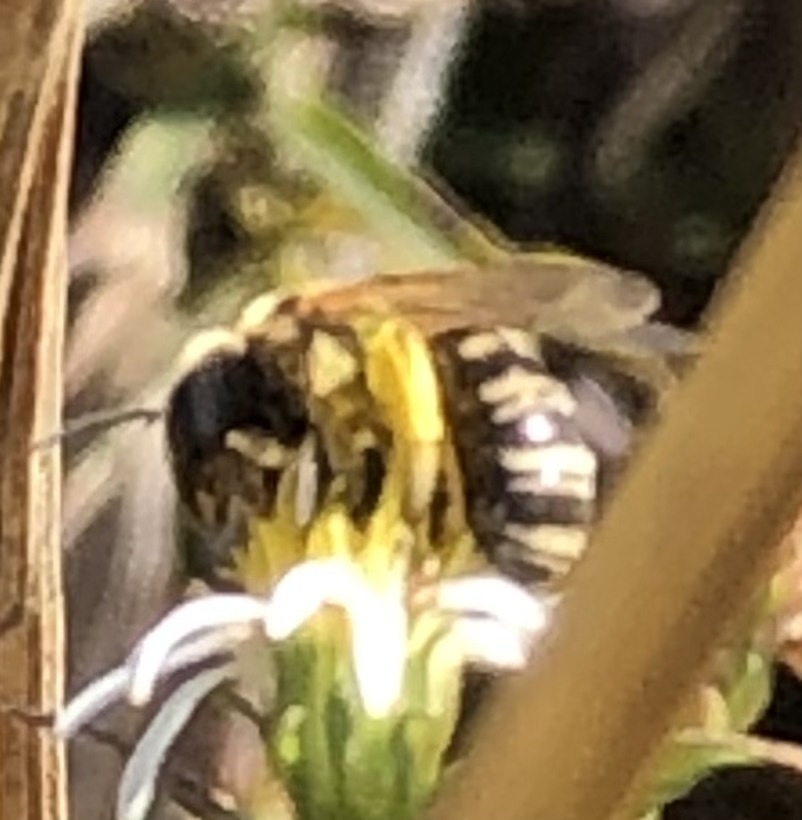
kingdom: Animalia
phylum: Arthropoda
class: Insecta
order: Hymenoptera
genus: Odontalictus
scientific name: Odontalictus
